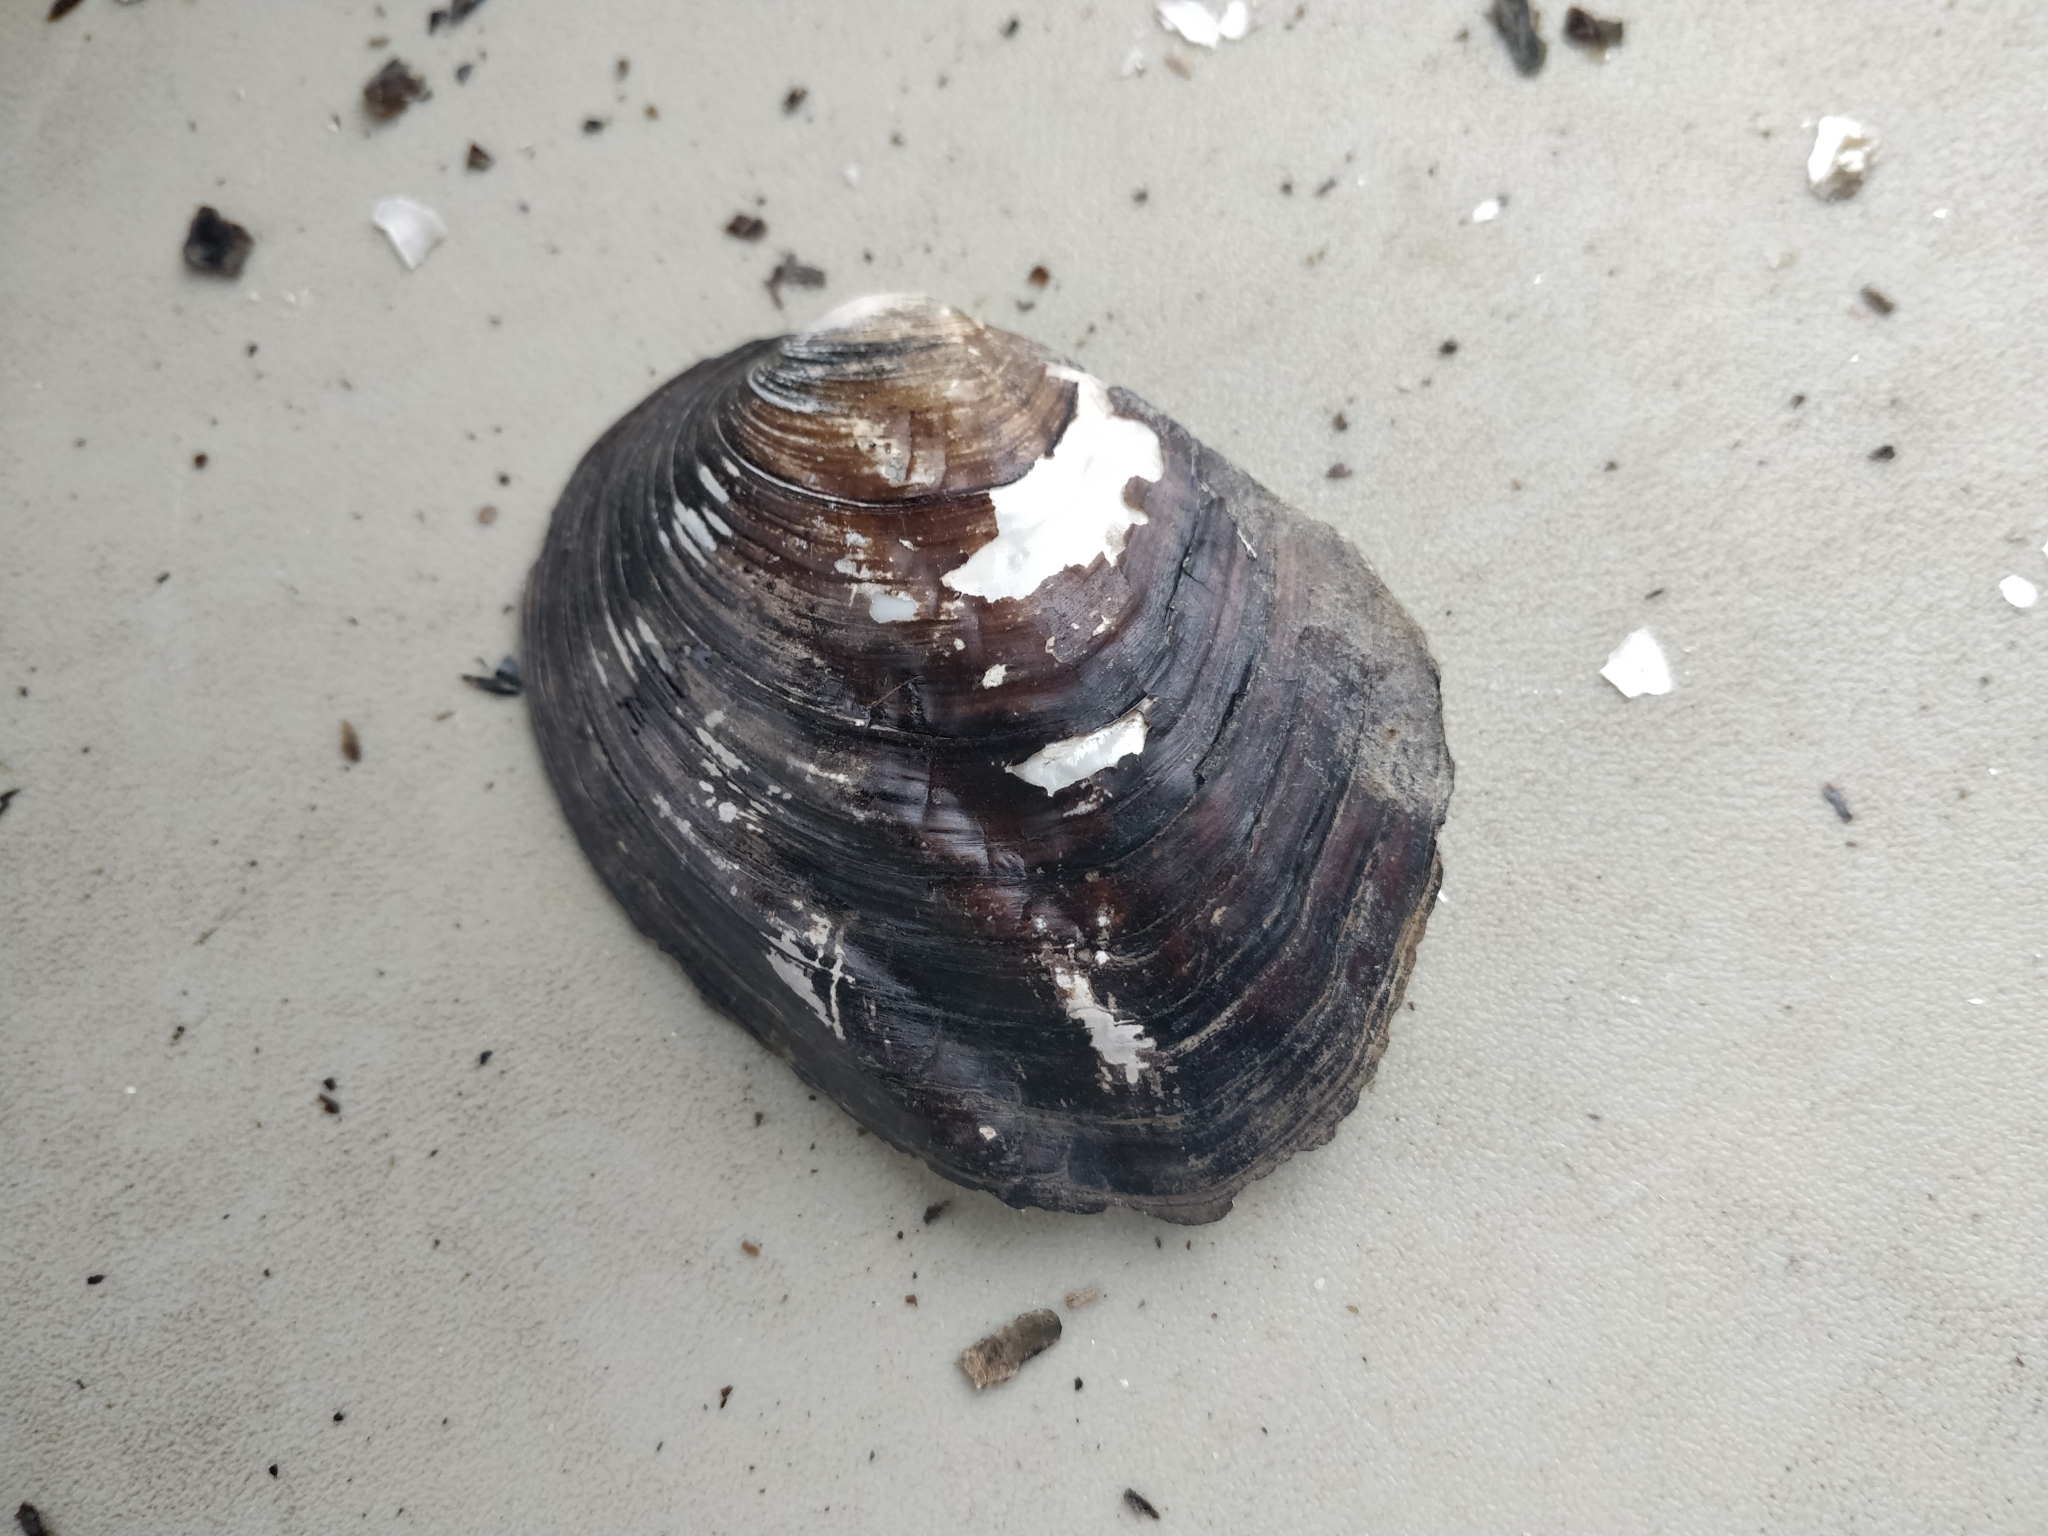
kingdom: Animalia
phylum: Mollusca
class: Bivalvia
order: Unionida
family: Unionidae
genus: Amblema
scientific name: Amblema plicata
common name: Threeridge
